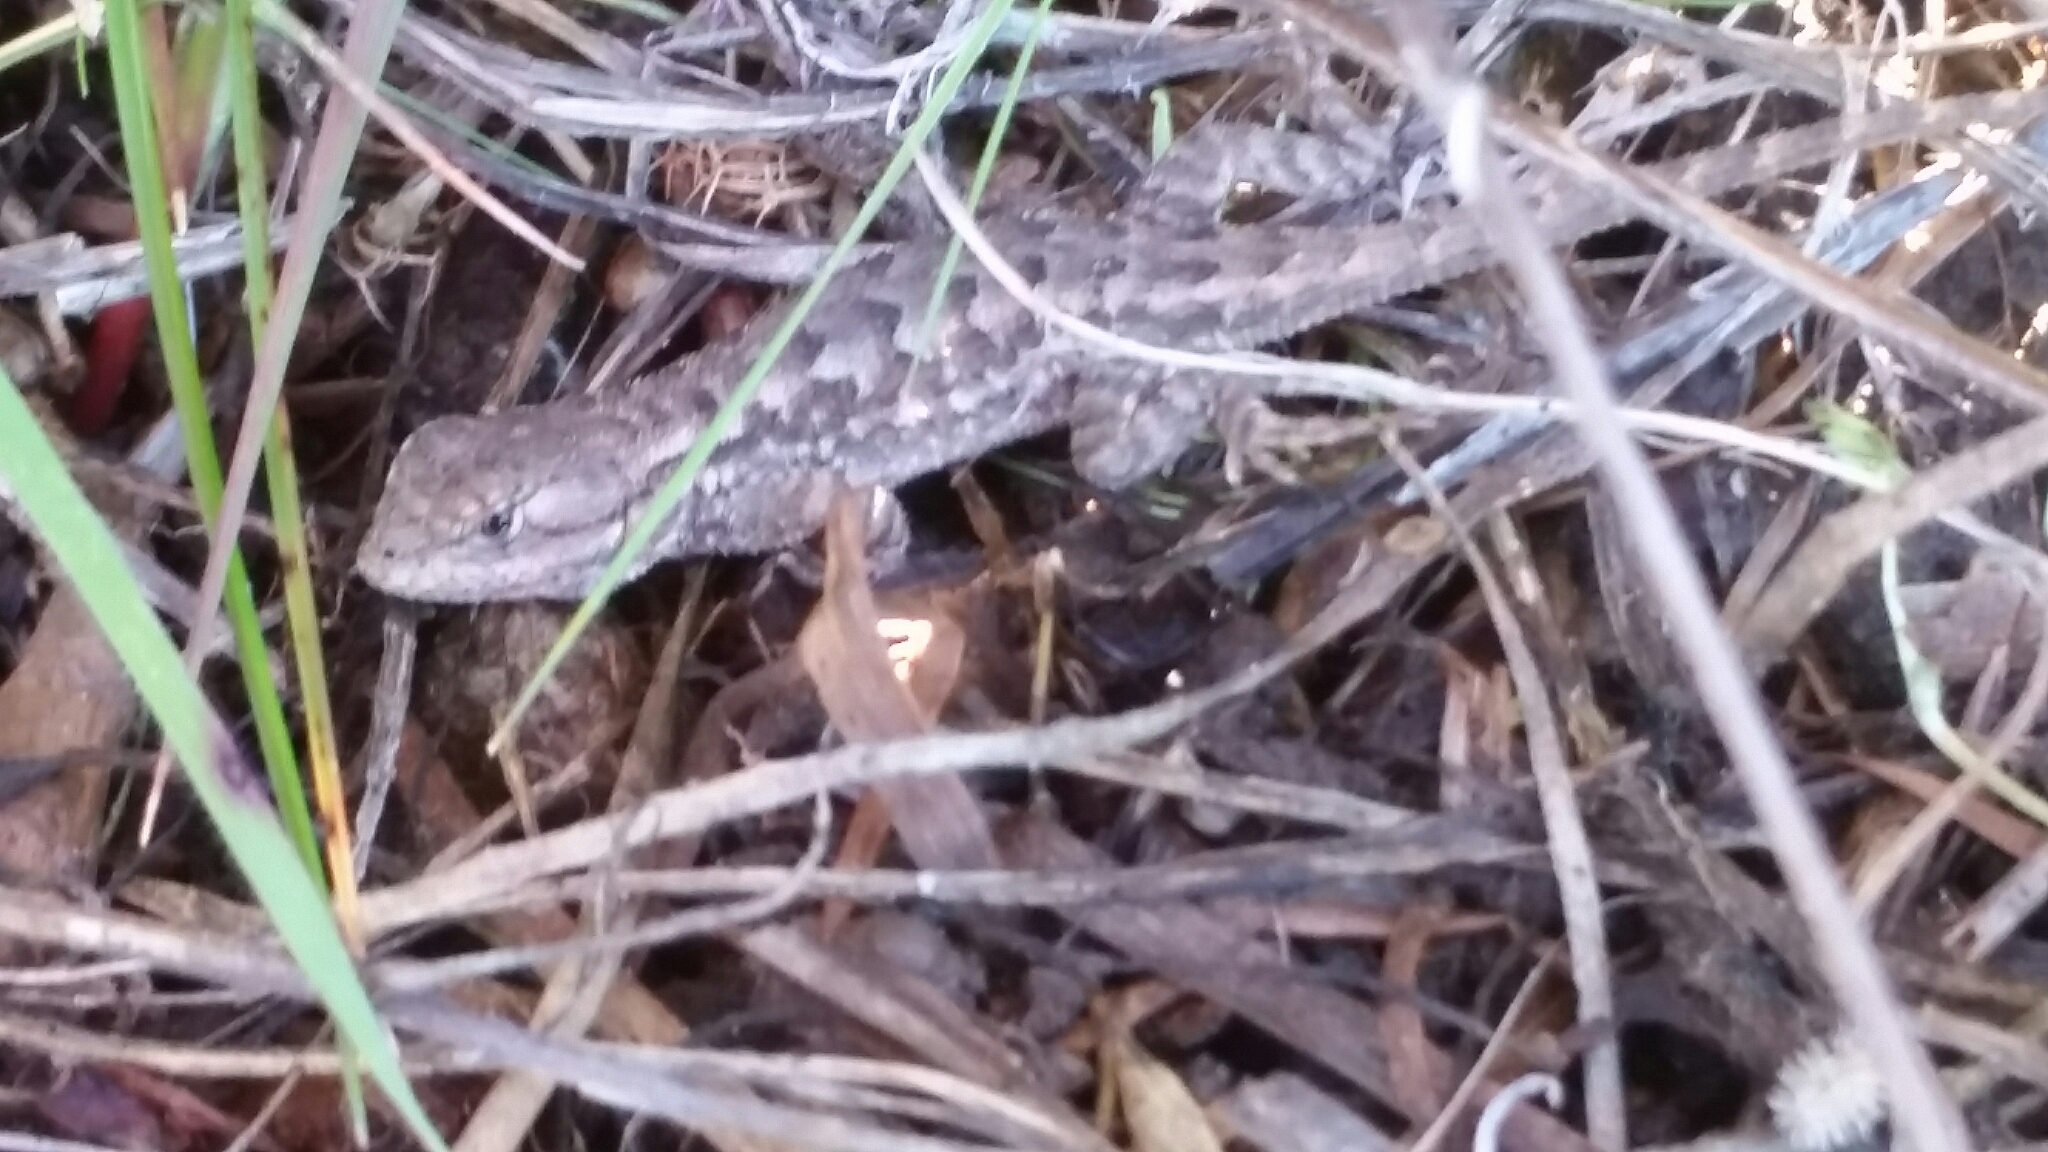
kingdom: Animalia
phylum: Chordata
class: Squamata
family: Phrynosomatidae
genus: Sceloporus
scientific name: Sceloporus occidentalis
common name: Western fence lizard
